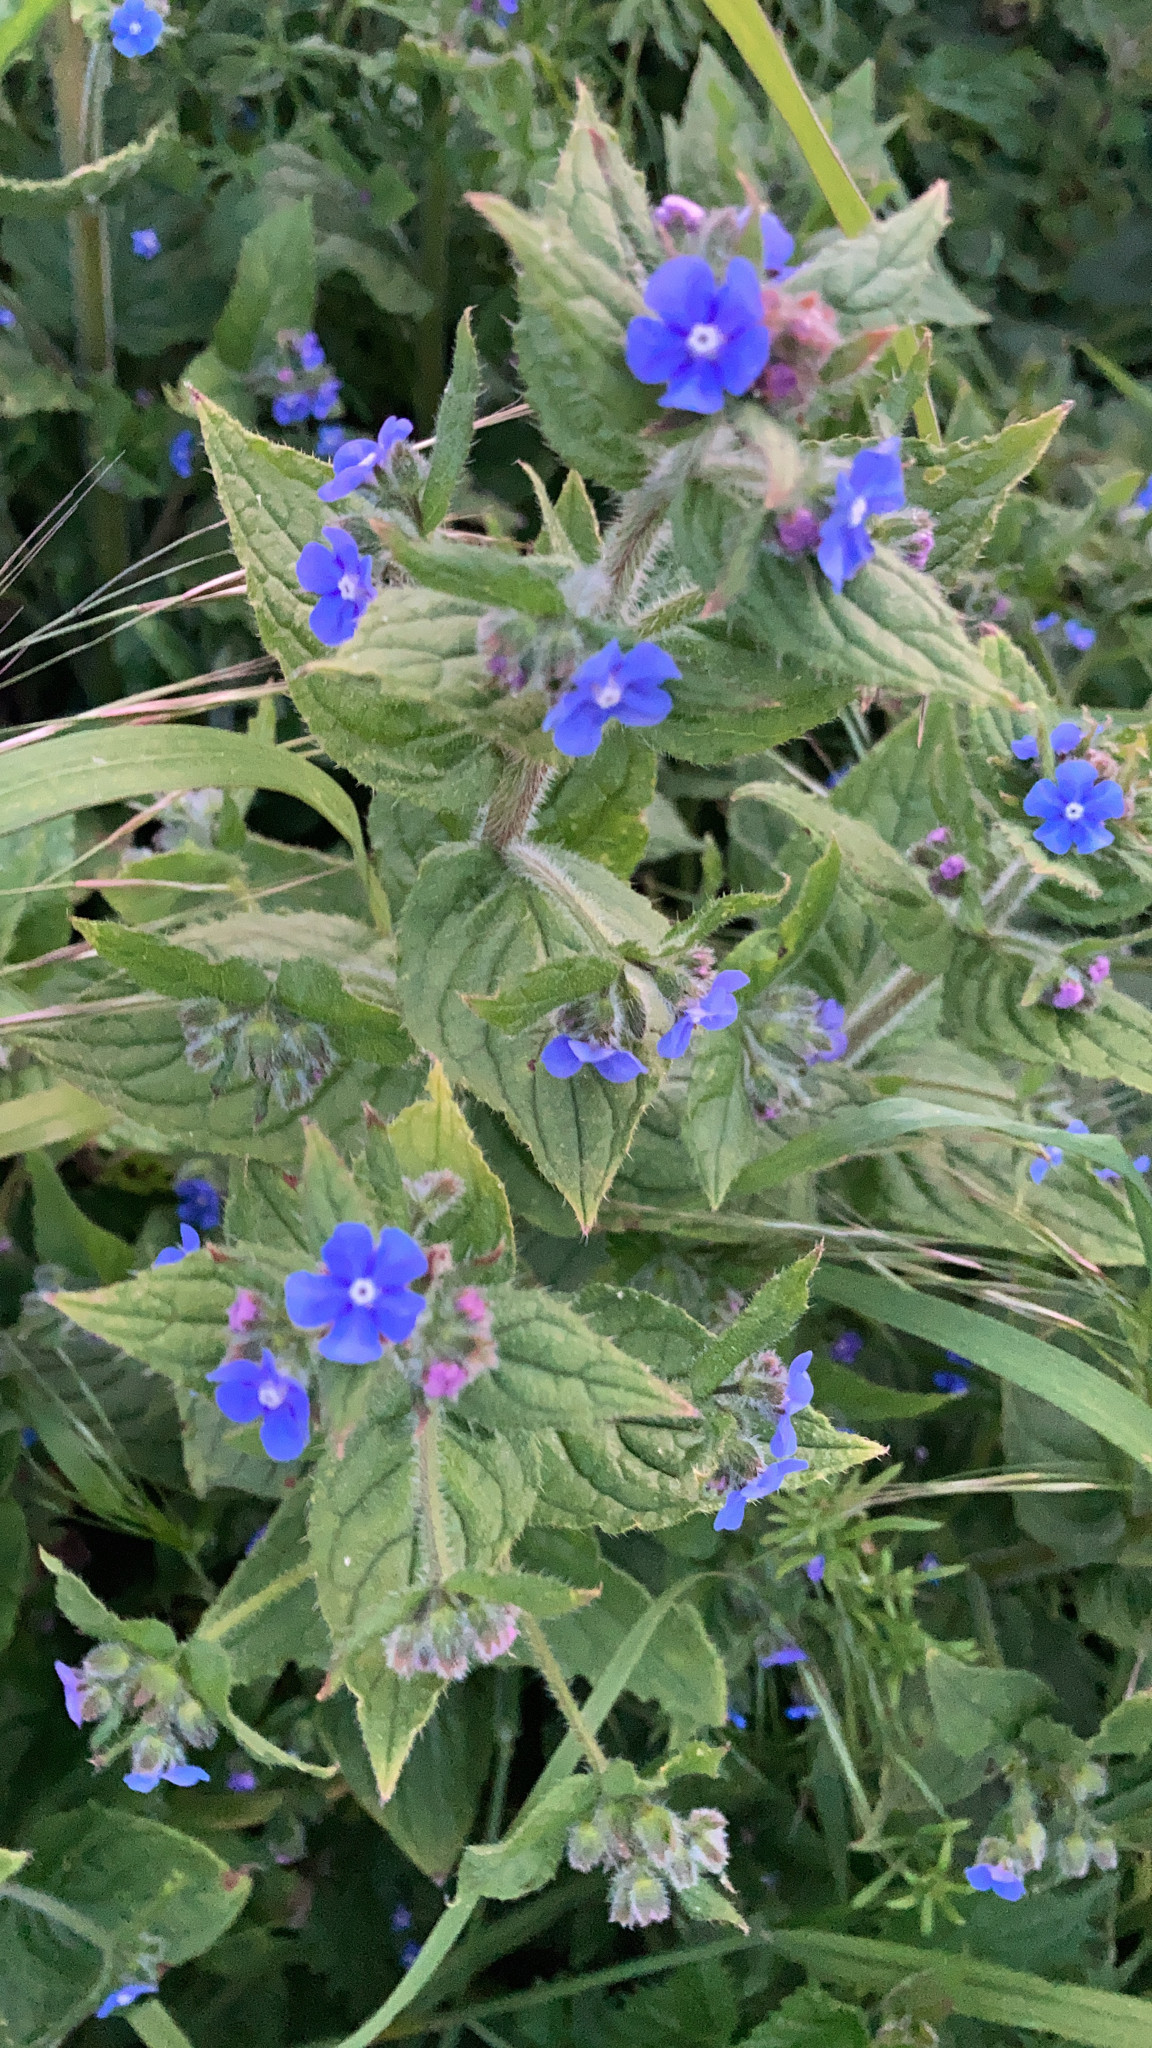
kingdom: Plantae
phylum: Tracheophyta
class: Magnoliopsida
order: Boraginales
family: Boraginaceae
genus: Pentaglottis
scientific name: Pentaglottis sempervirens
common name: Green alkanet
